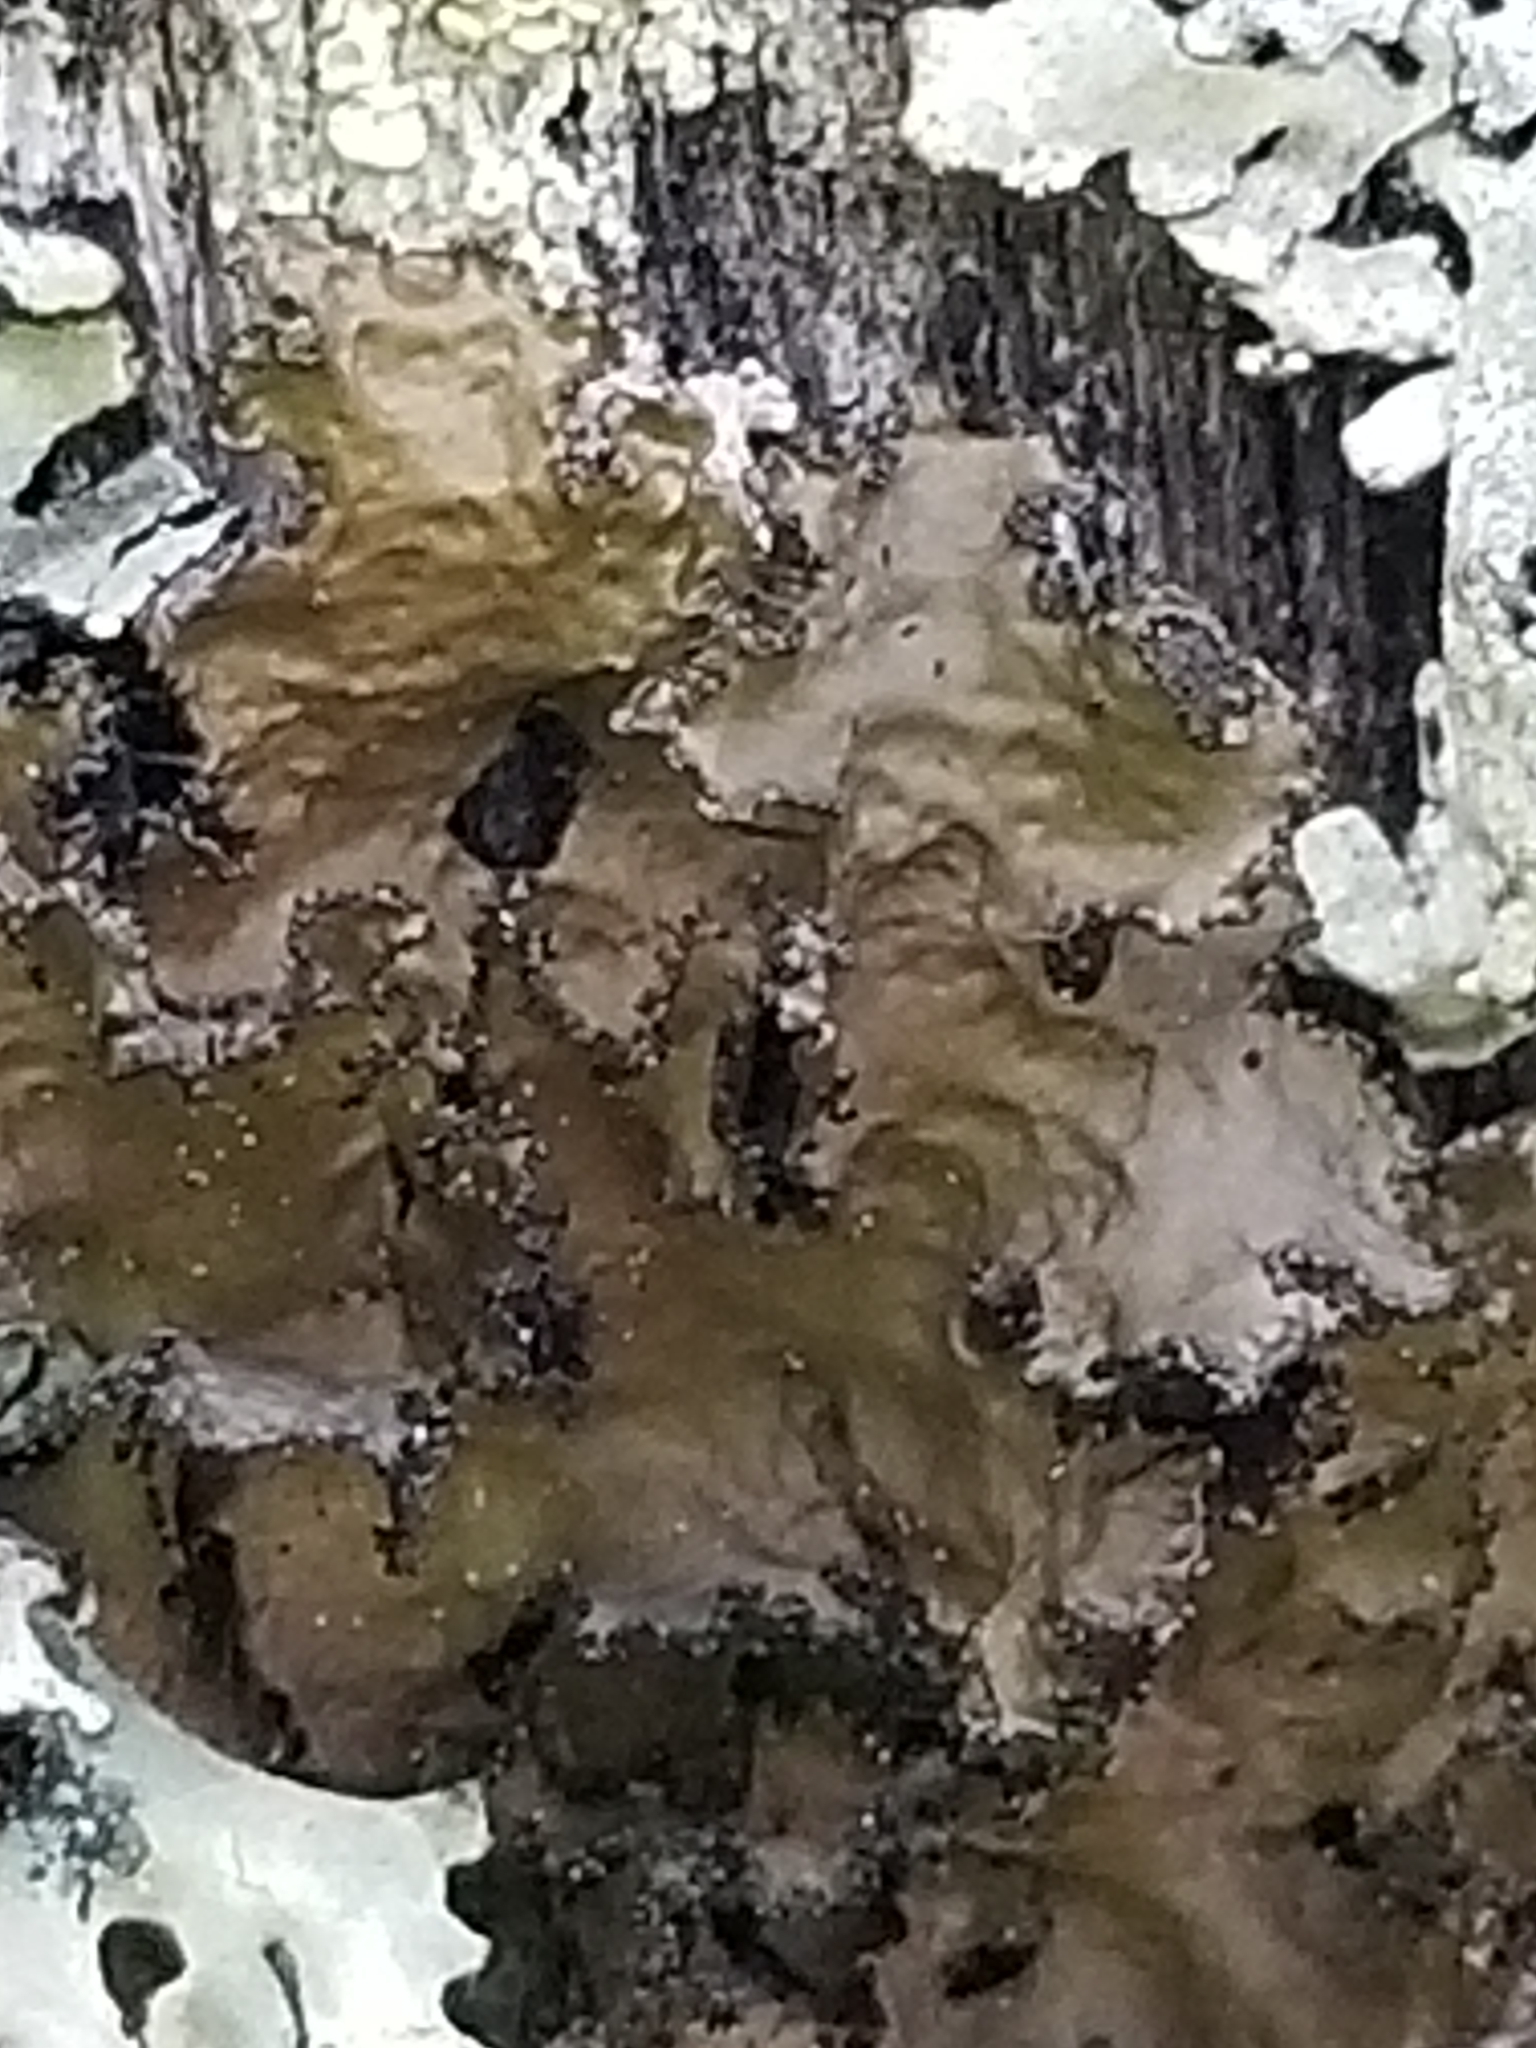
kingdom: Fungi
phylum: Ascomycota
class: Lecanoromycetes
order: Lecanorales
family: Parmeliaceae
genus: Nephromopsis
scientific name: Nephromopsis orbata
